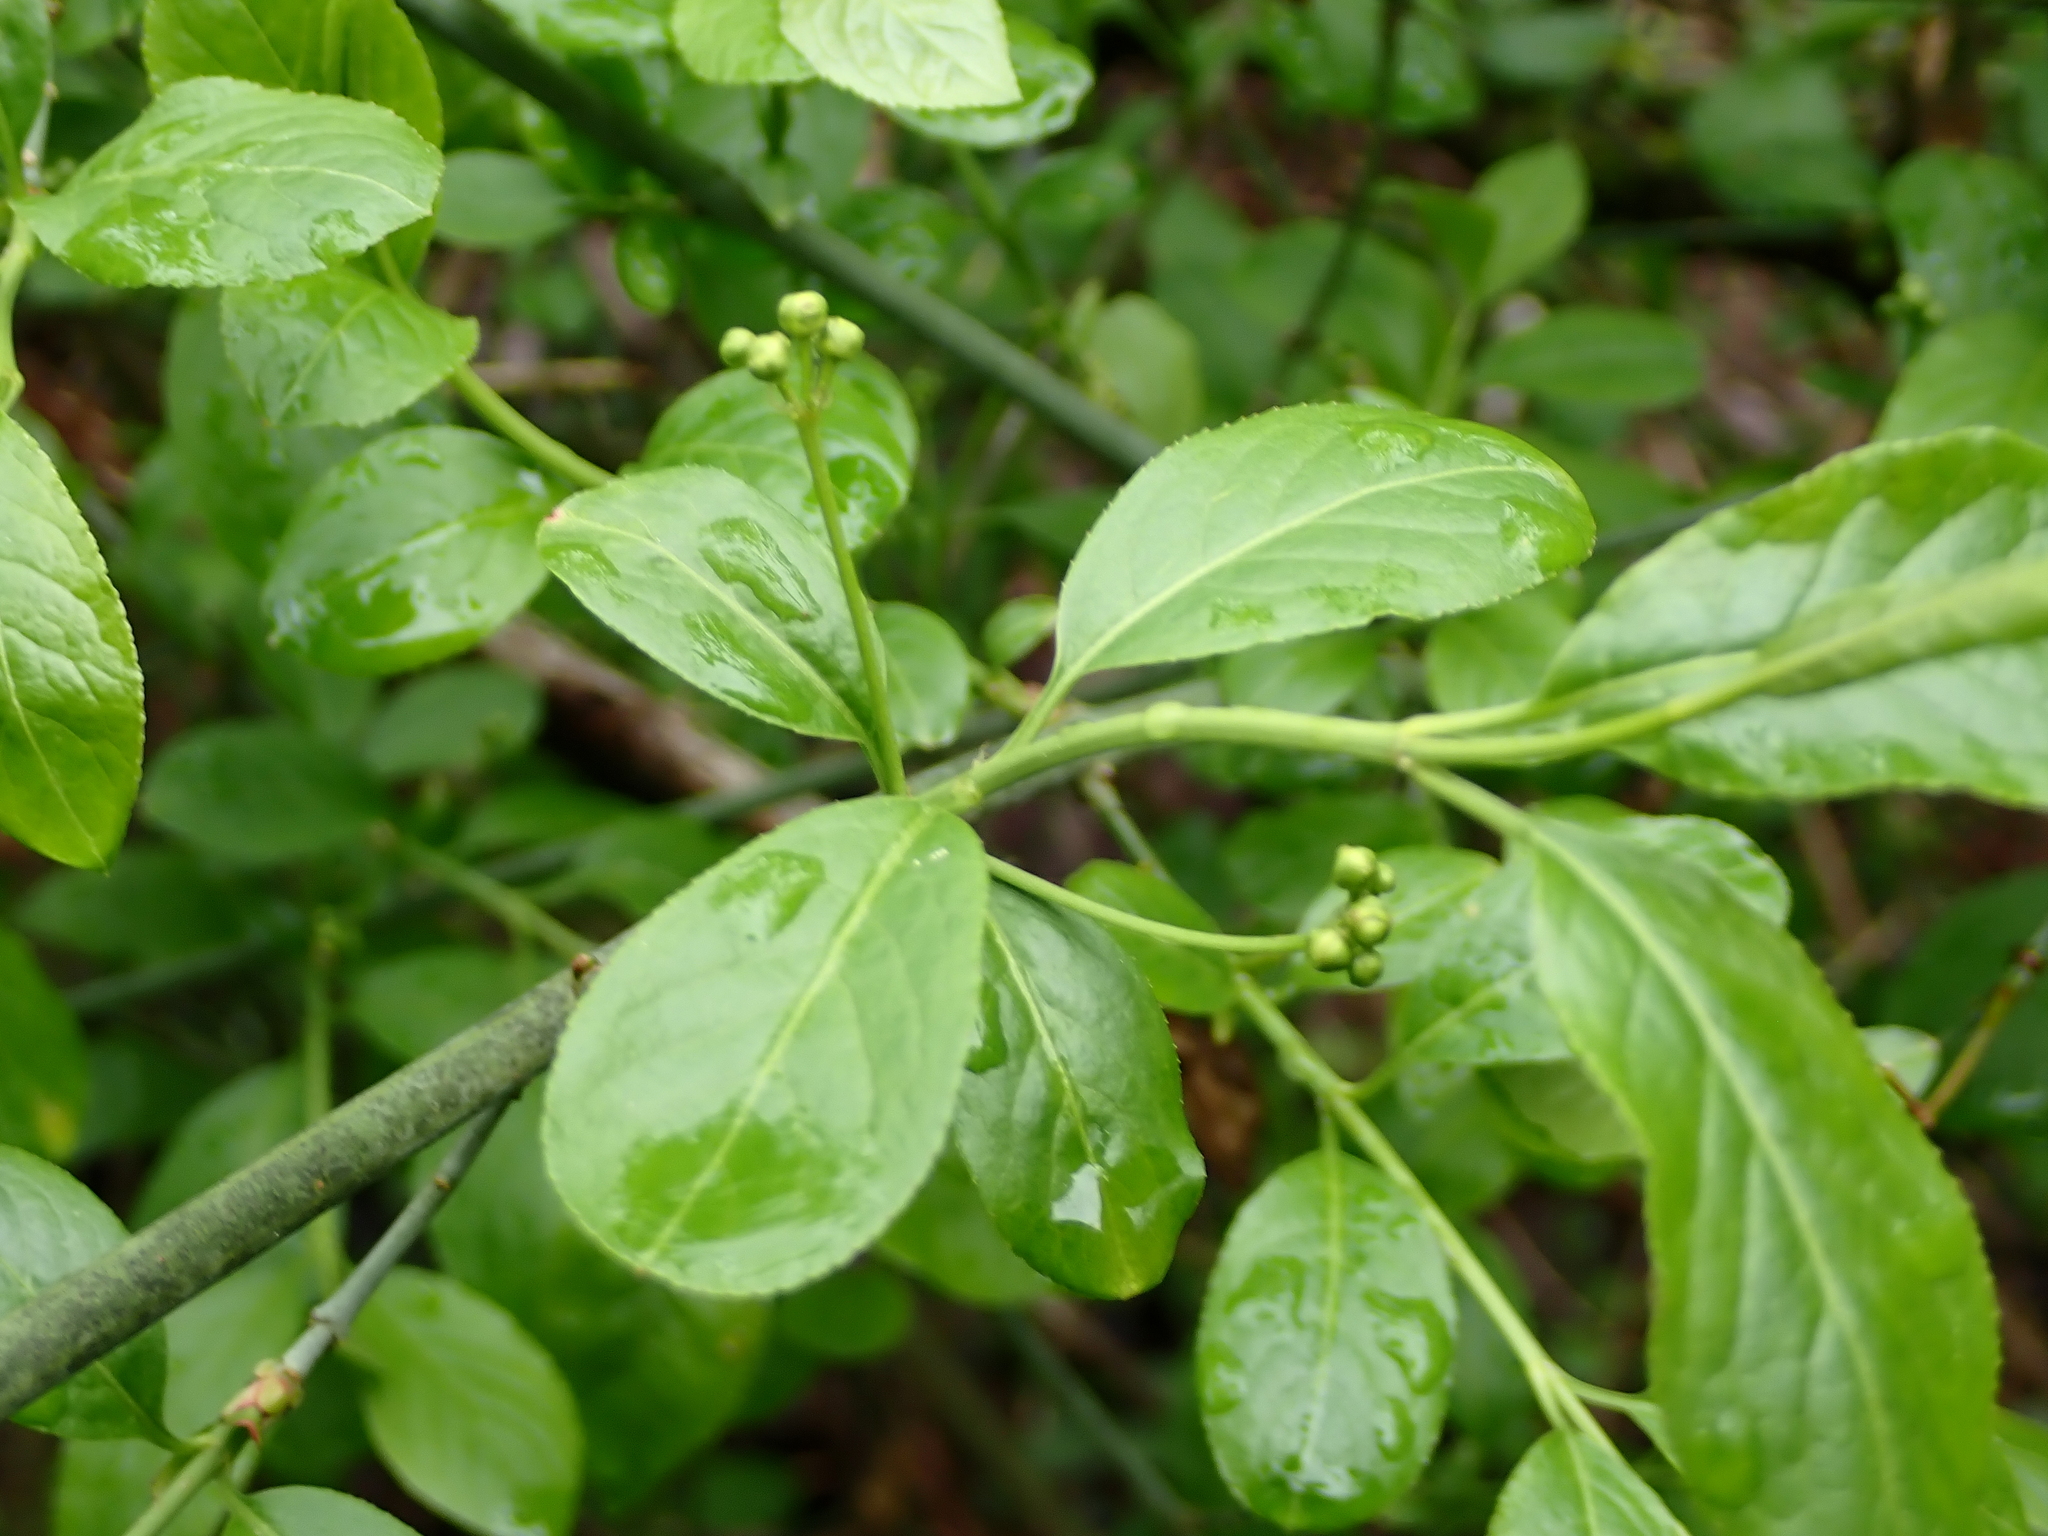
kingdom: Plantae
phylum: Tracheophyta
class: Magnoliopsida
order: Celastrales
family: Celastraceae
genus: Euonymus
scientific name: Euonymus europaeus
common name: Spindle
